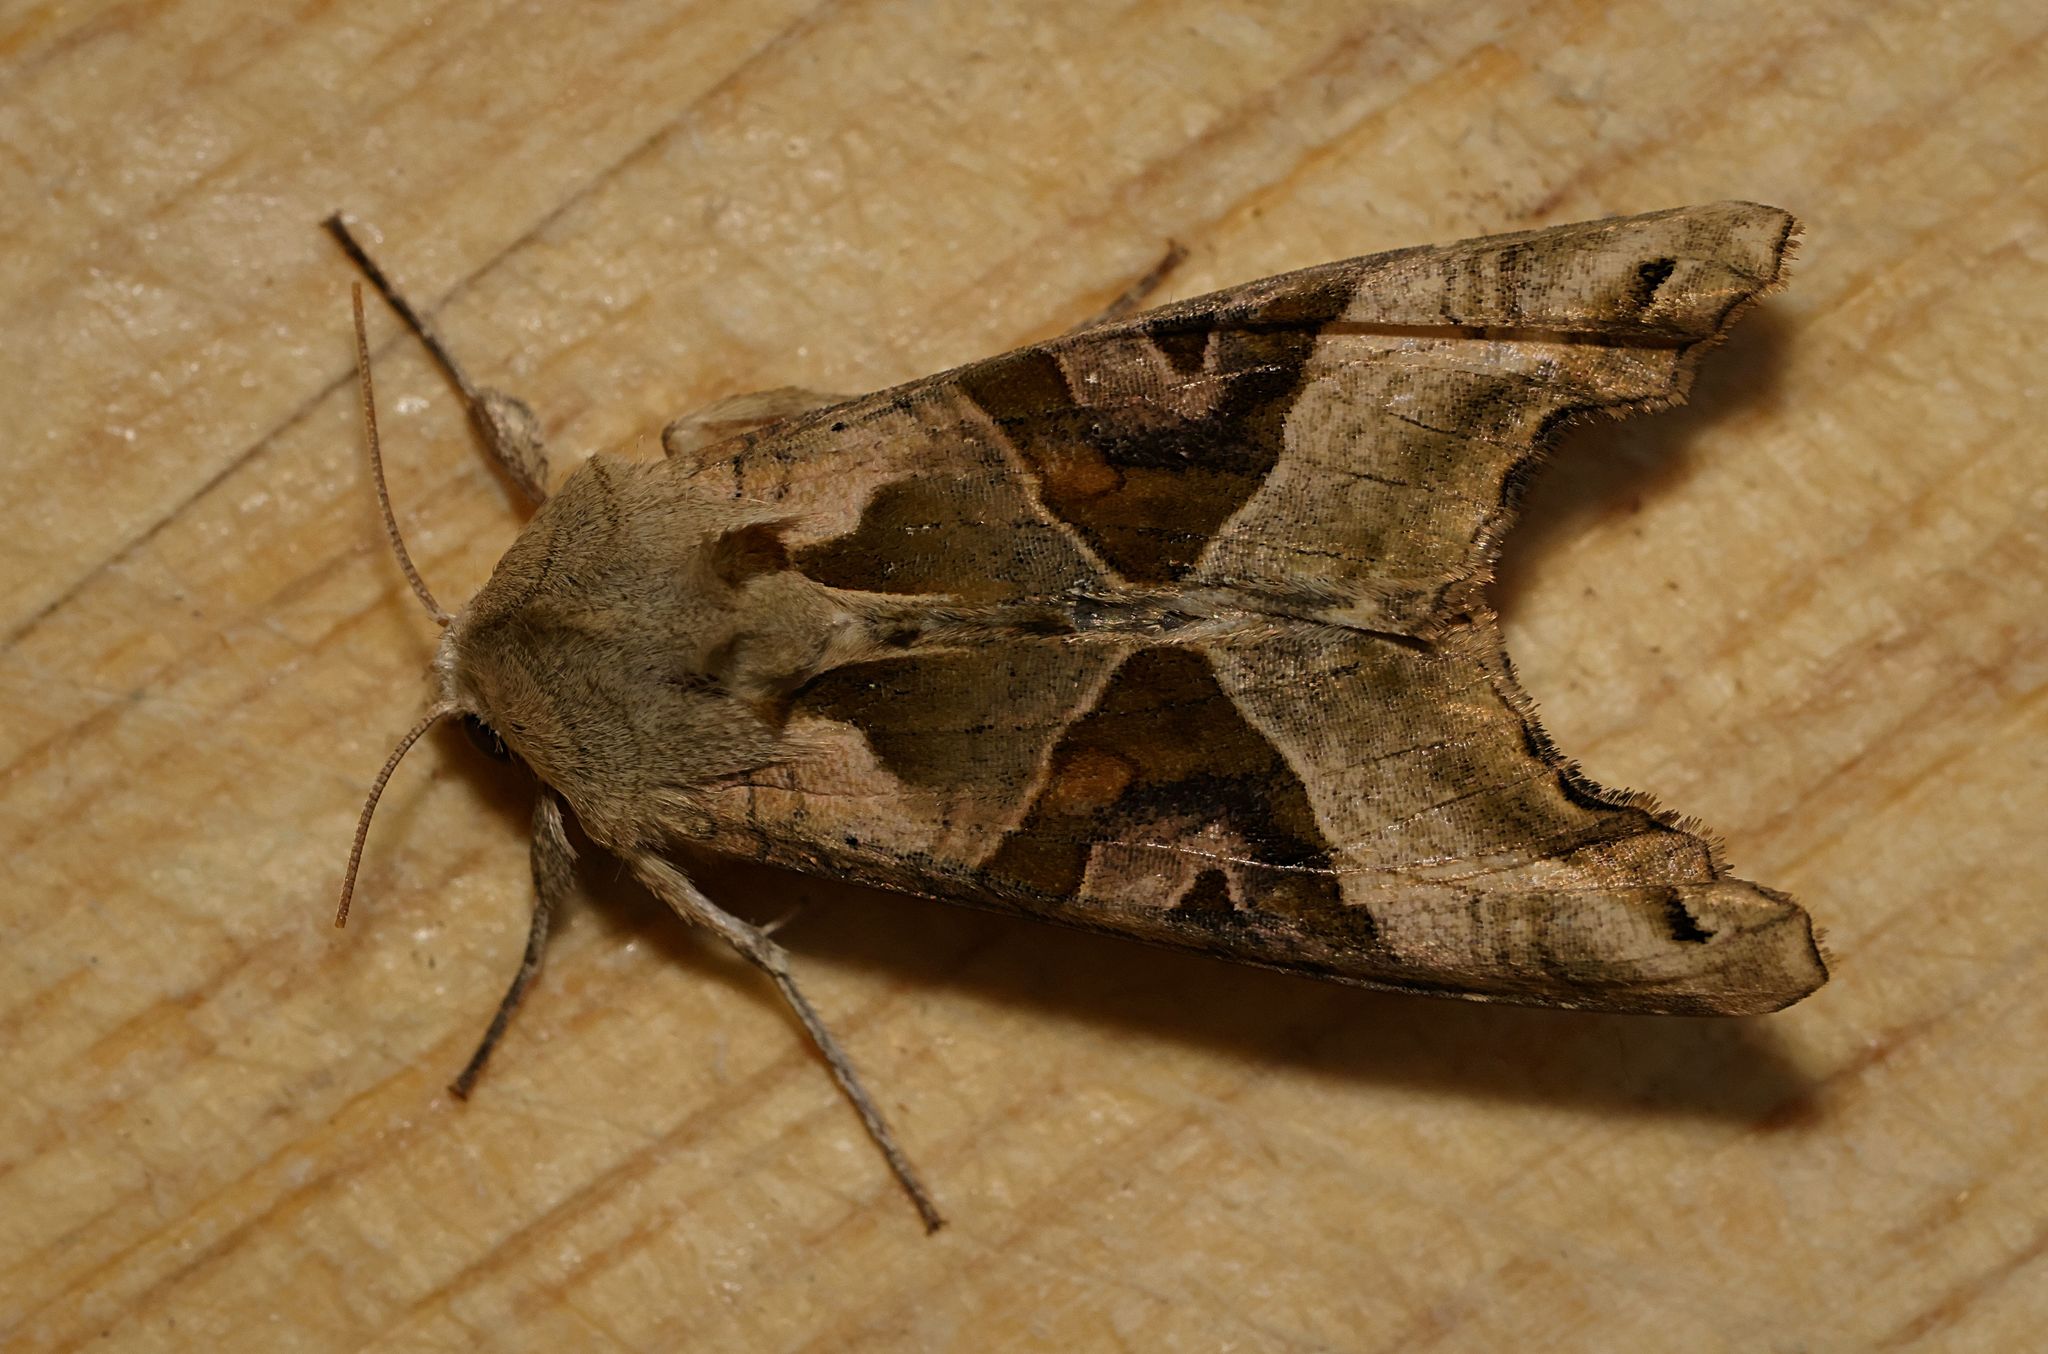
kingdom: Animalia
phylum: Arthropoda
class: Insecta
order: Lepidoptera
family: Noctuidae
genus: Phlogophora
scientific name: Phlogophora meticulosa
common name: Angle shades
